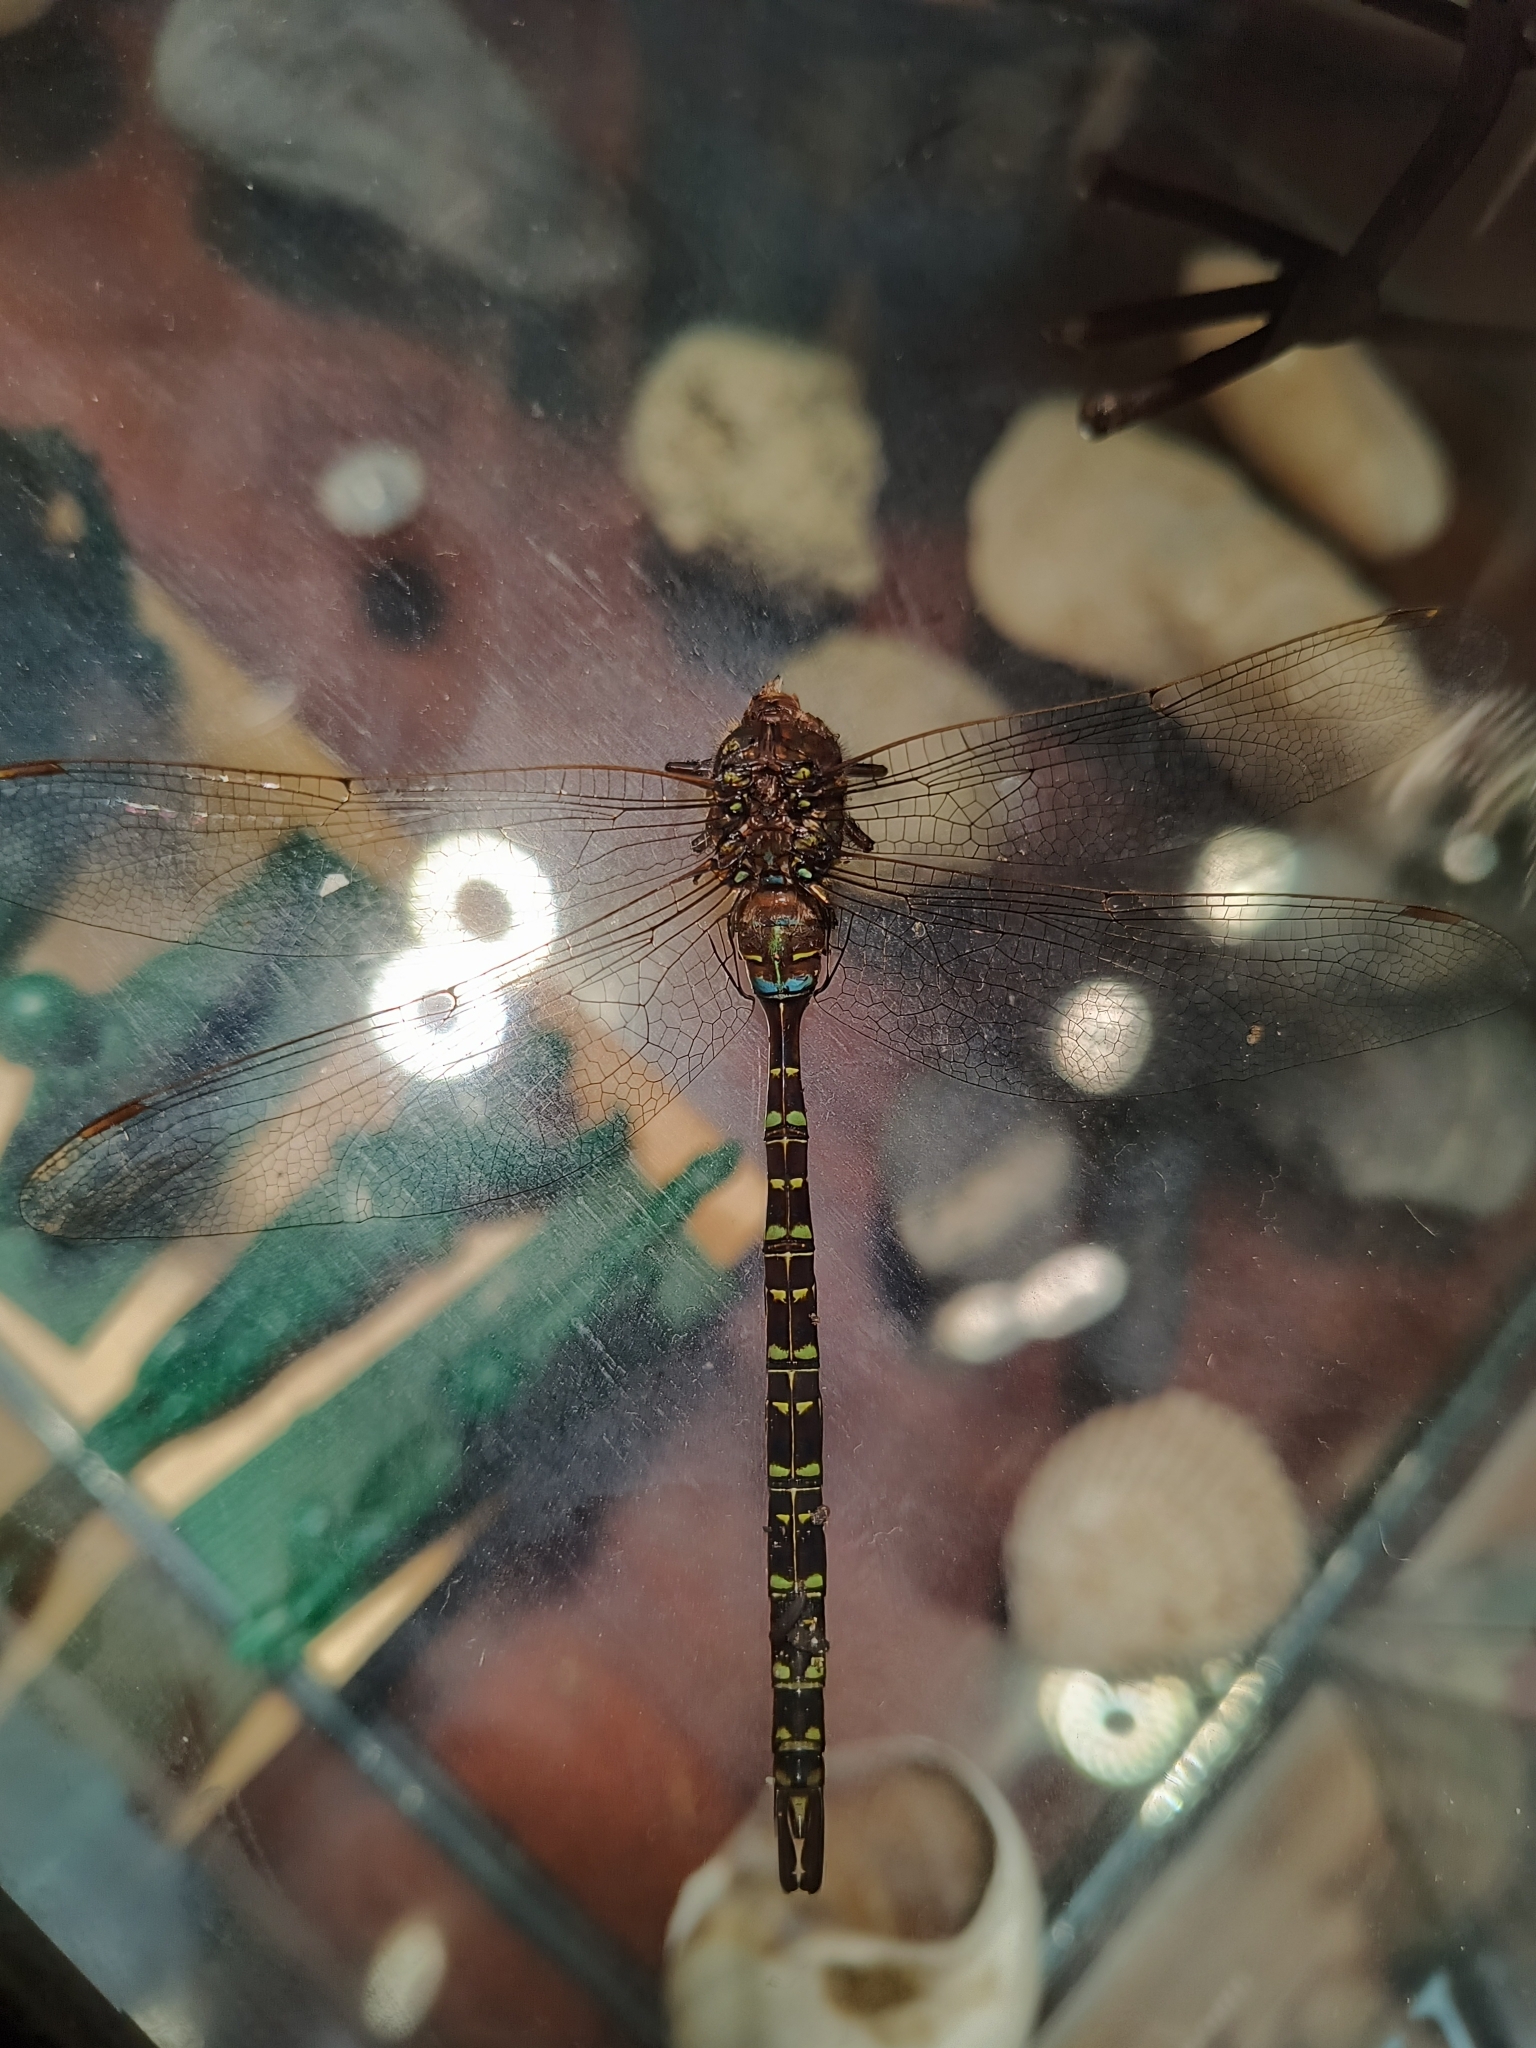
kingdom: Animalia
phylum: Arthropoda
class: Insecta
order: Odonata
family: Aeshnidae
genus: Aeshna
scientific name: Aeshna umbrosa
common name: Shadow darner
